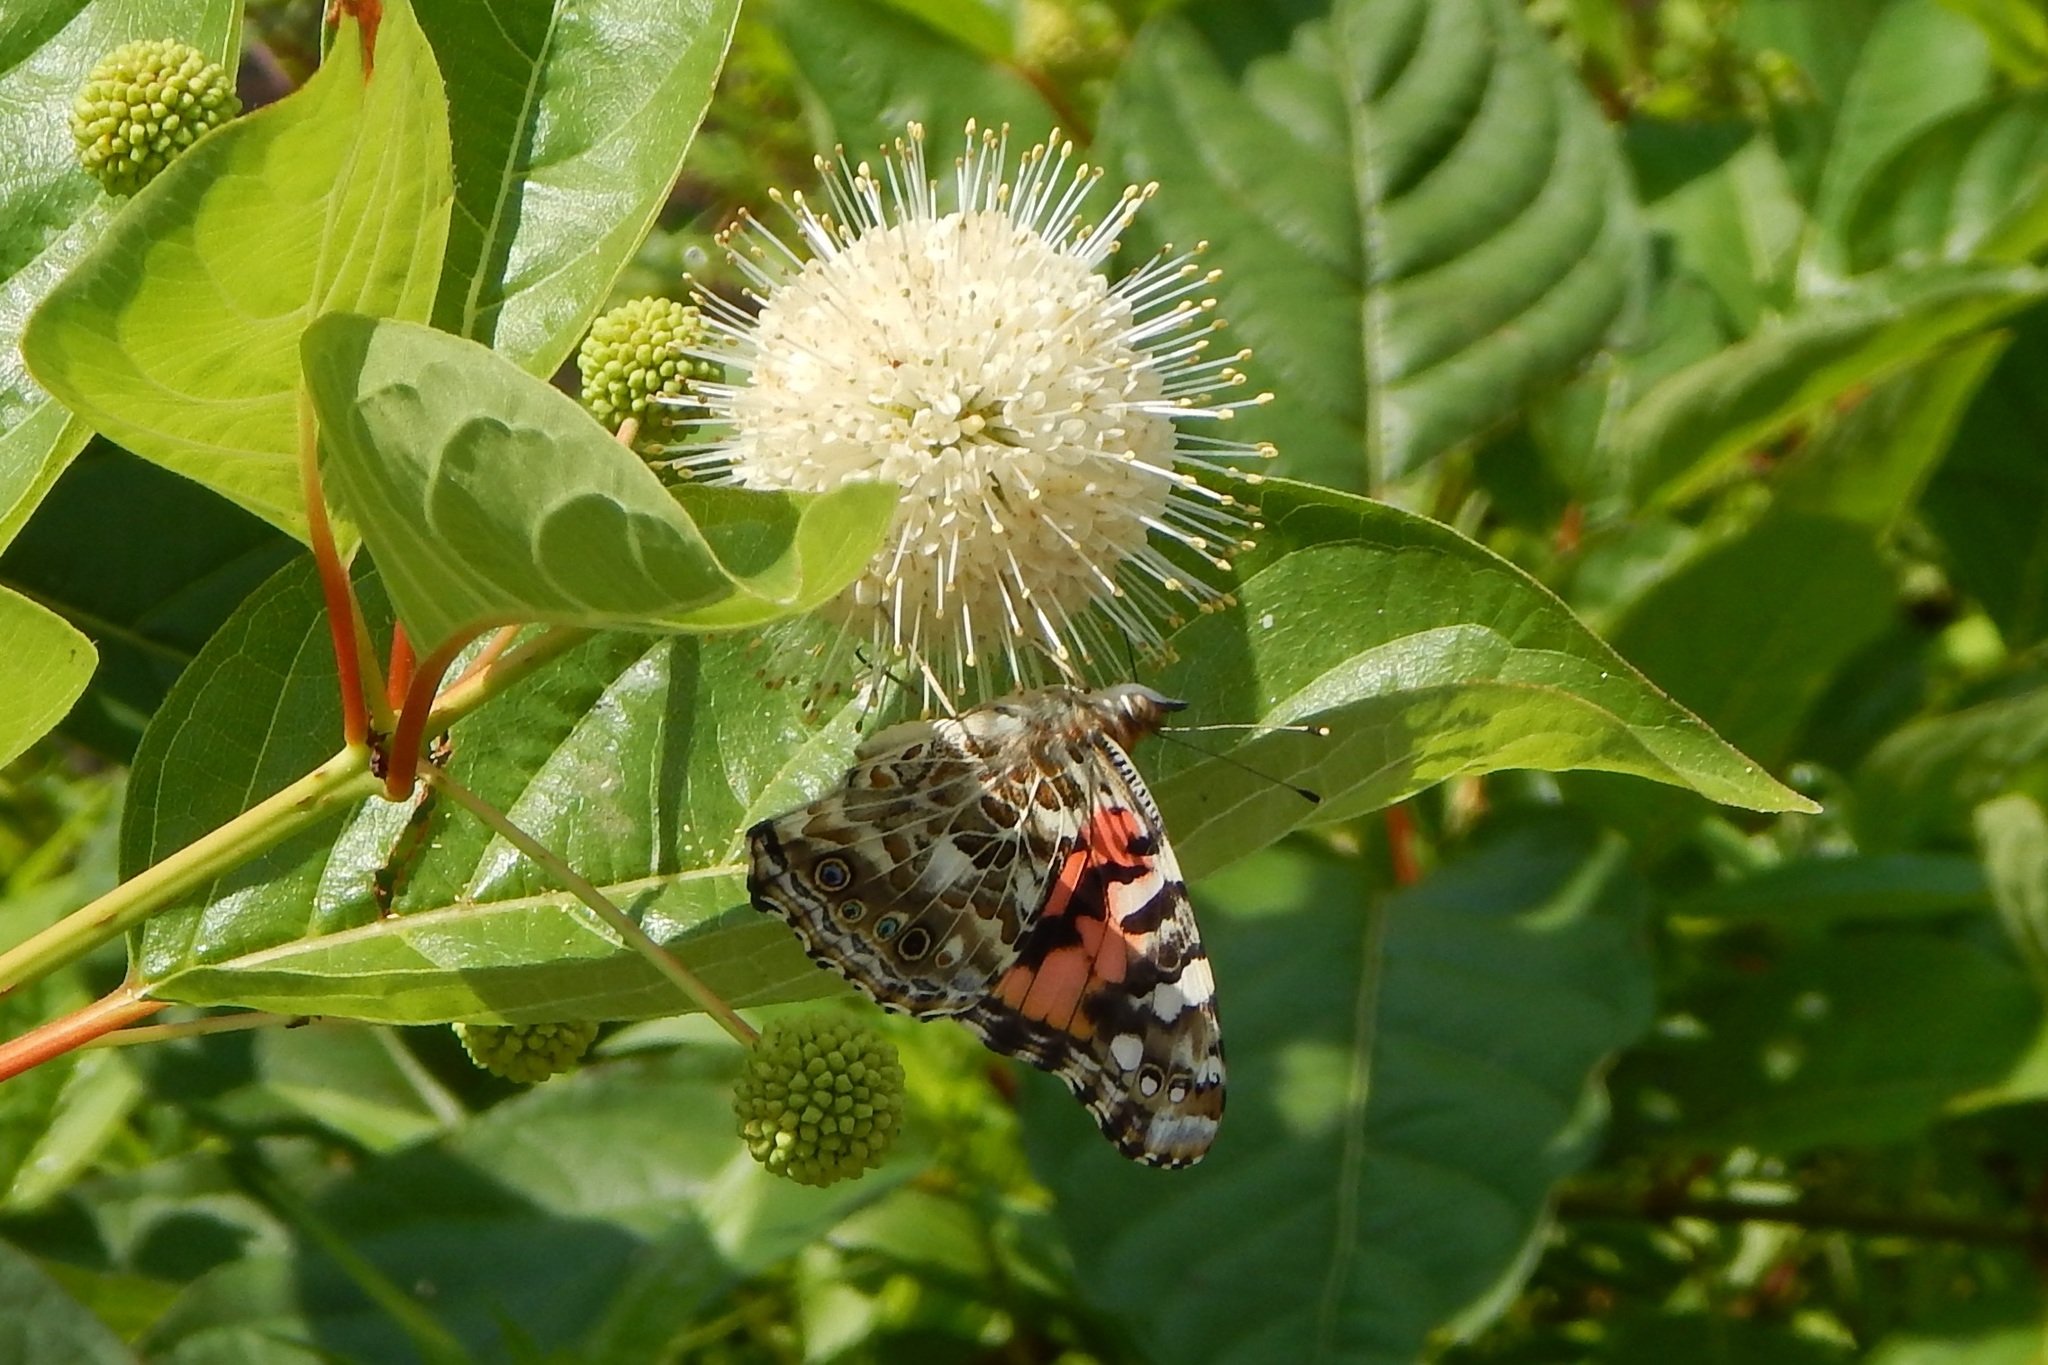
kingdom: Animalia
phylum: Arthropoda
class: Insecta
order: Lepidoptera
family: Nymphalidae
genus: Vanessa
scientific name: Vanessa cardui
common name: Painted lady
